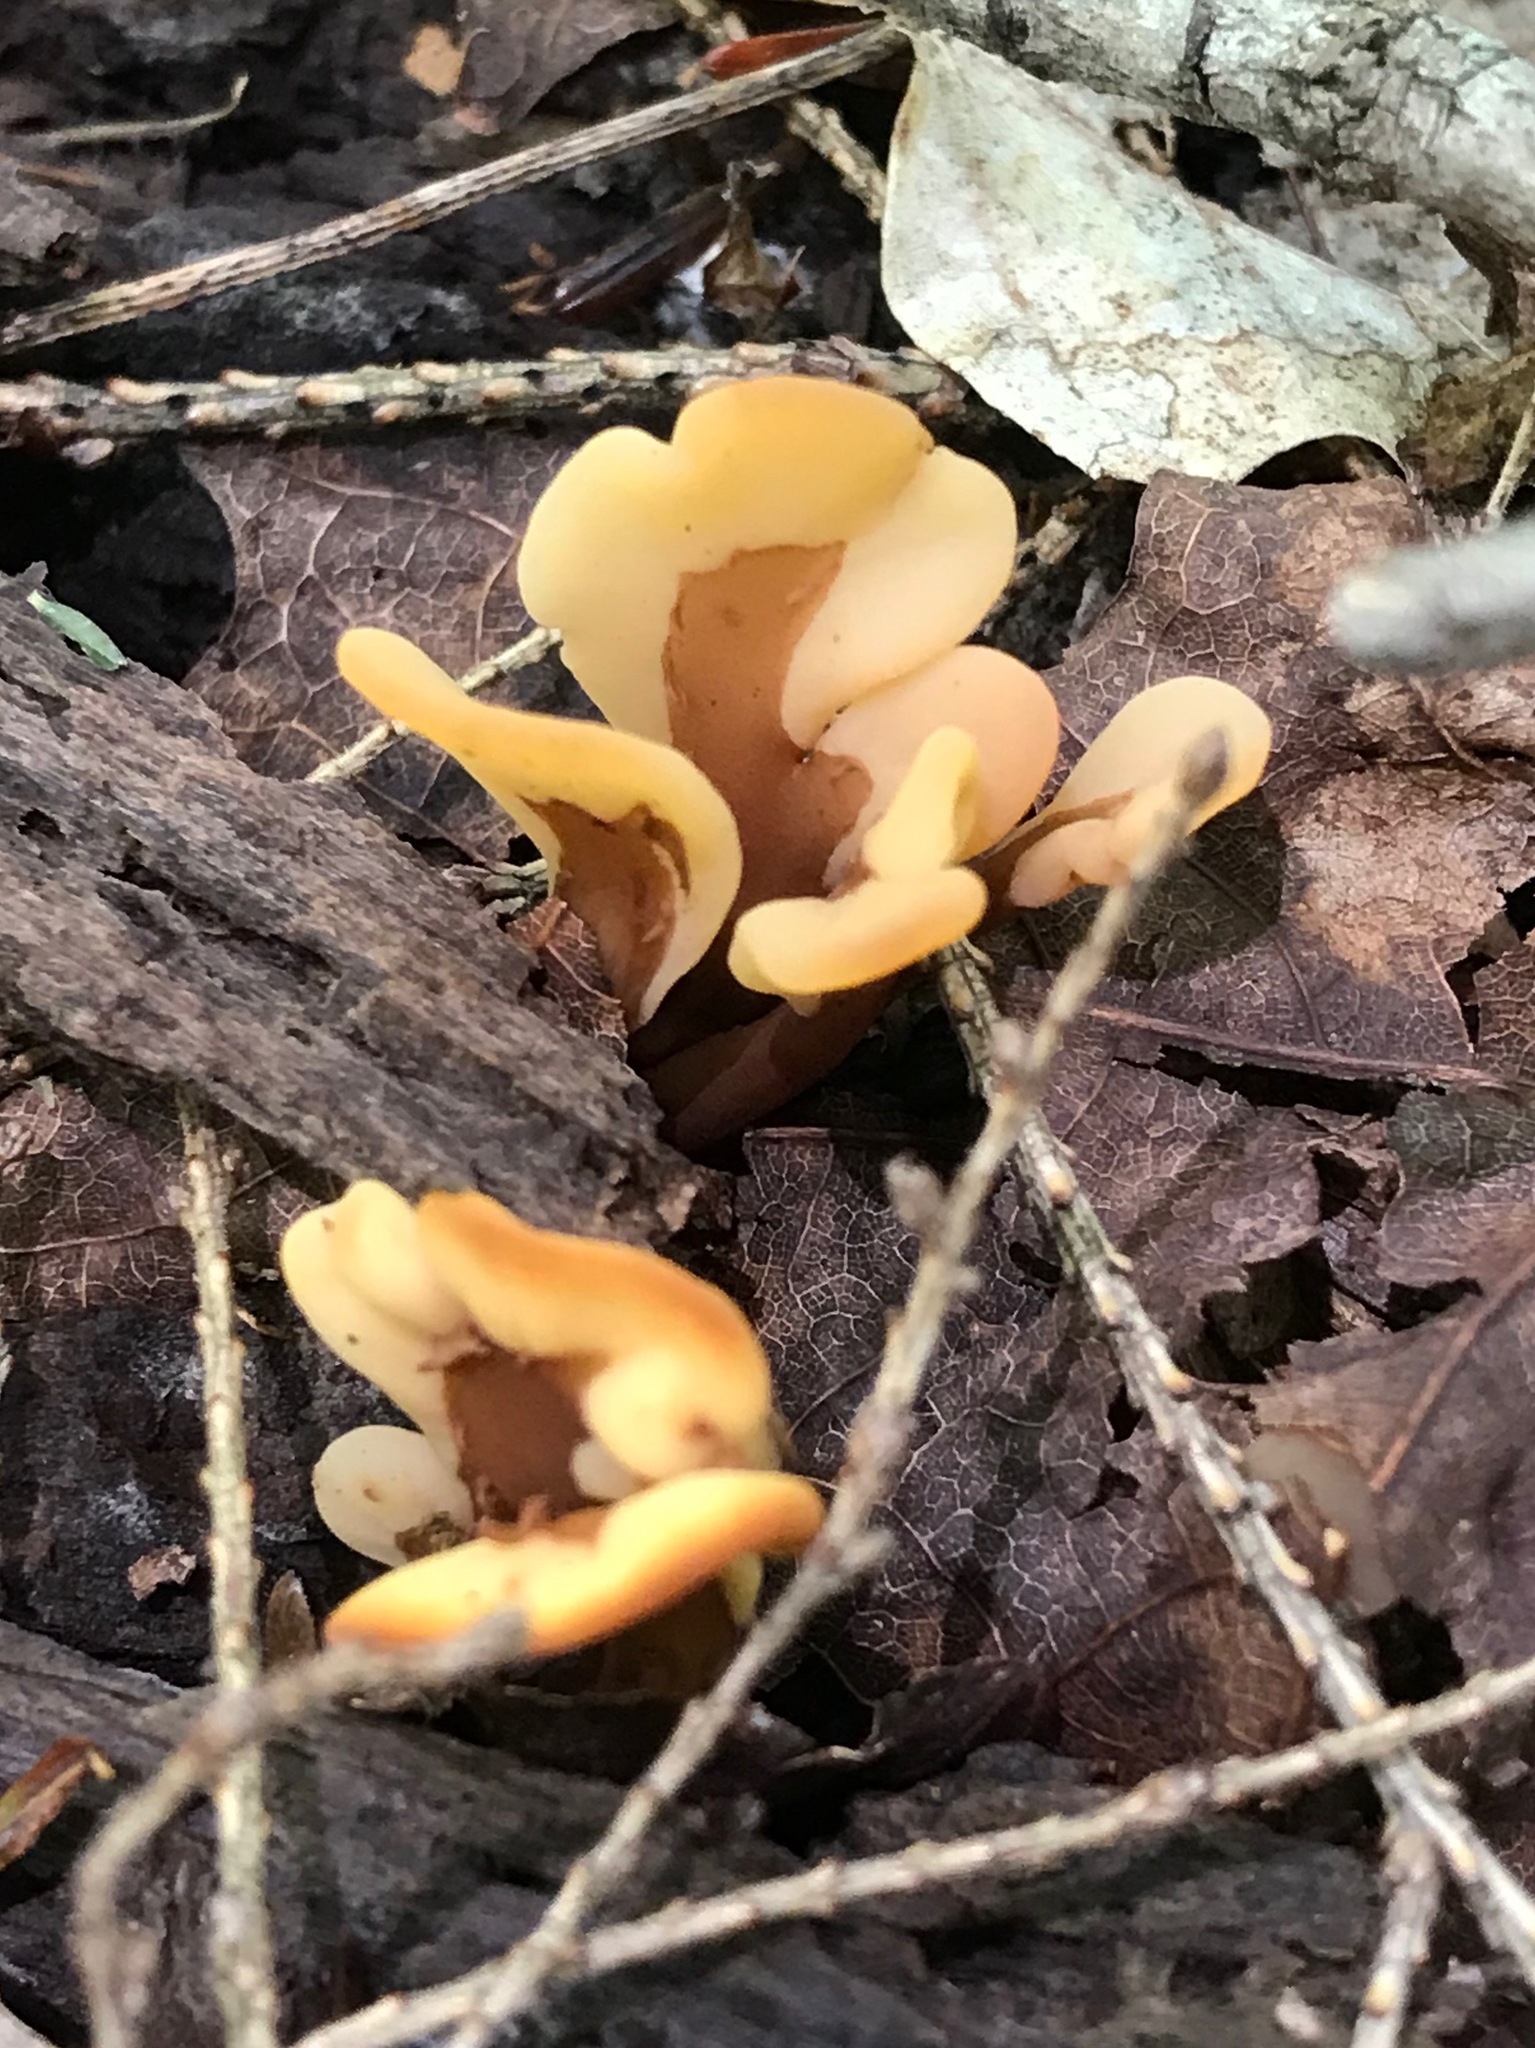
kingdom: Fungi
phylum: Ascomycota
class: Leotiomycetes
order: Rhytismatales
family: Cudoniaceae
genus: Spathulariopsis
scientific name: Spathulariopsis velutipes
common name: Velvet-foot fairy fan
